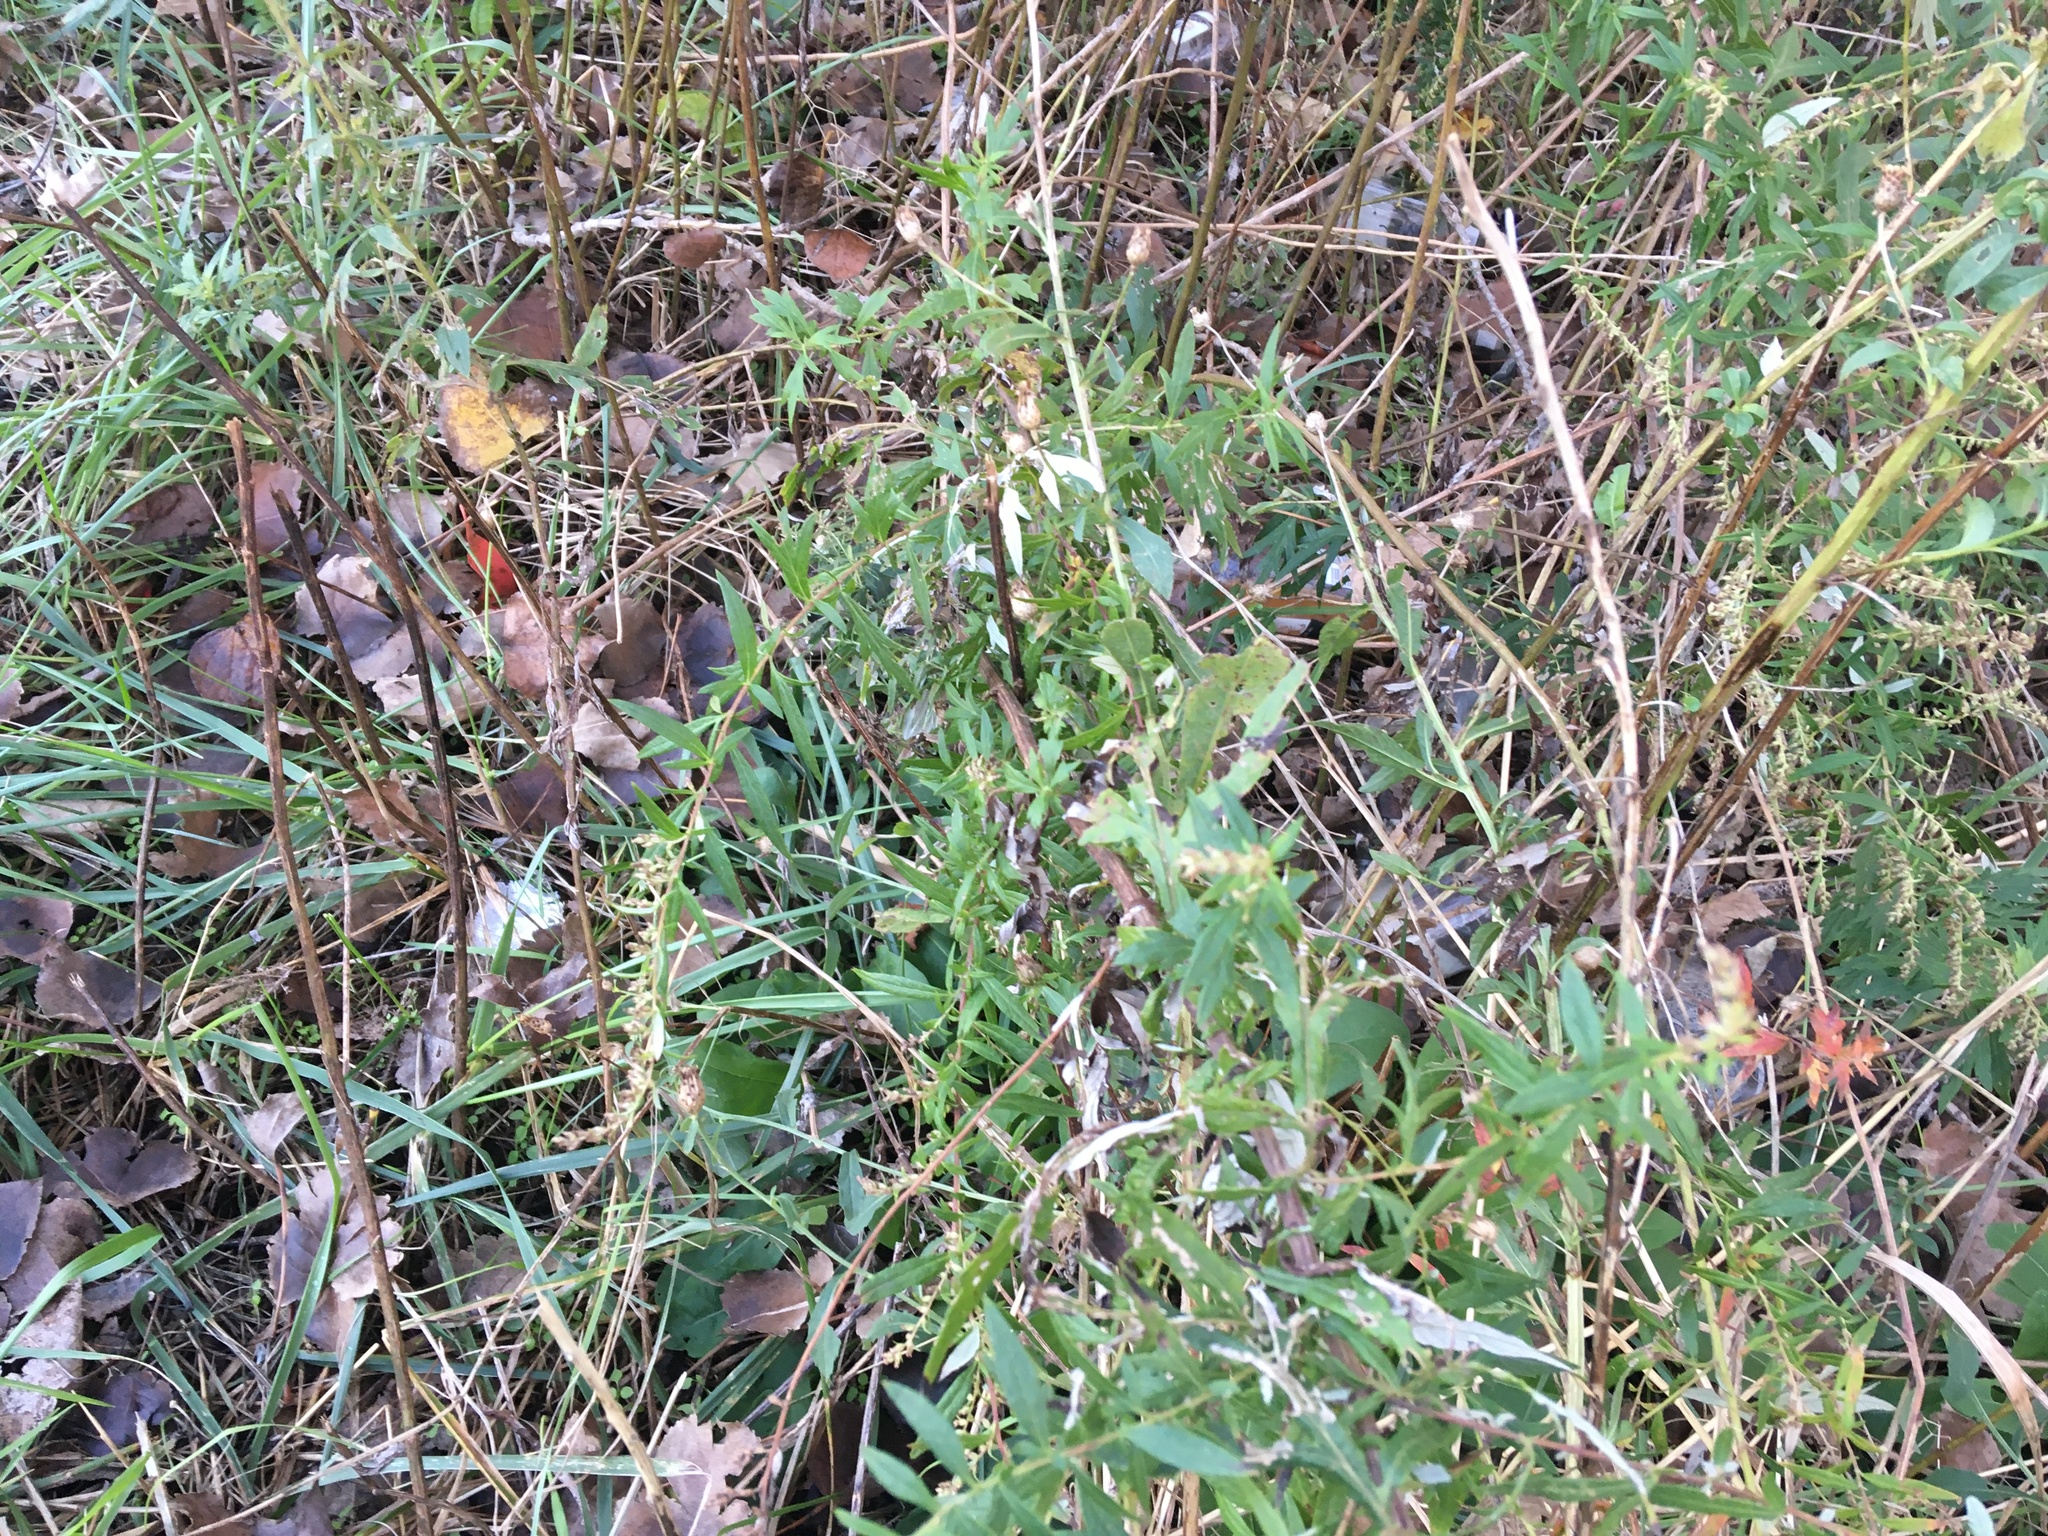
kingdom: Plantae
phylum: Tracheophyta
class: Magnoliopsida
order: Asterales
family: Asteraceae
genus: Artemisia
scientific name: Artemisia vulgaris
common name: Mugwort
